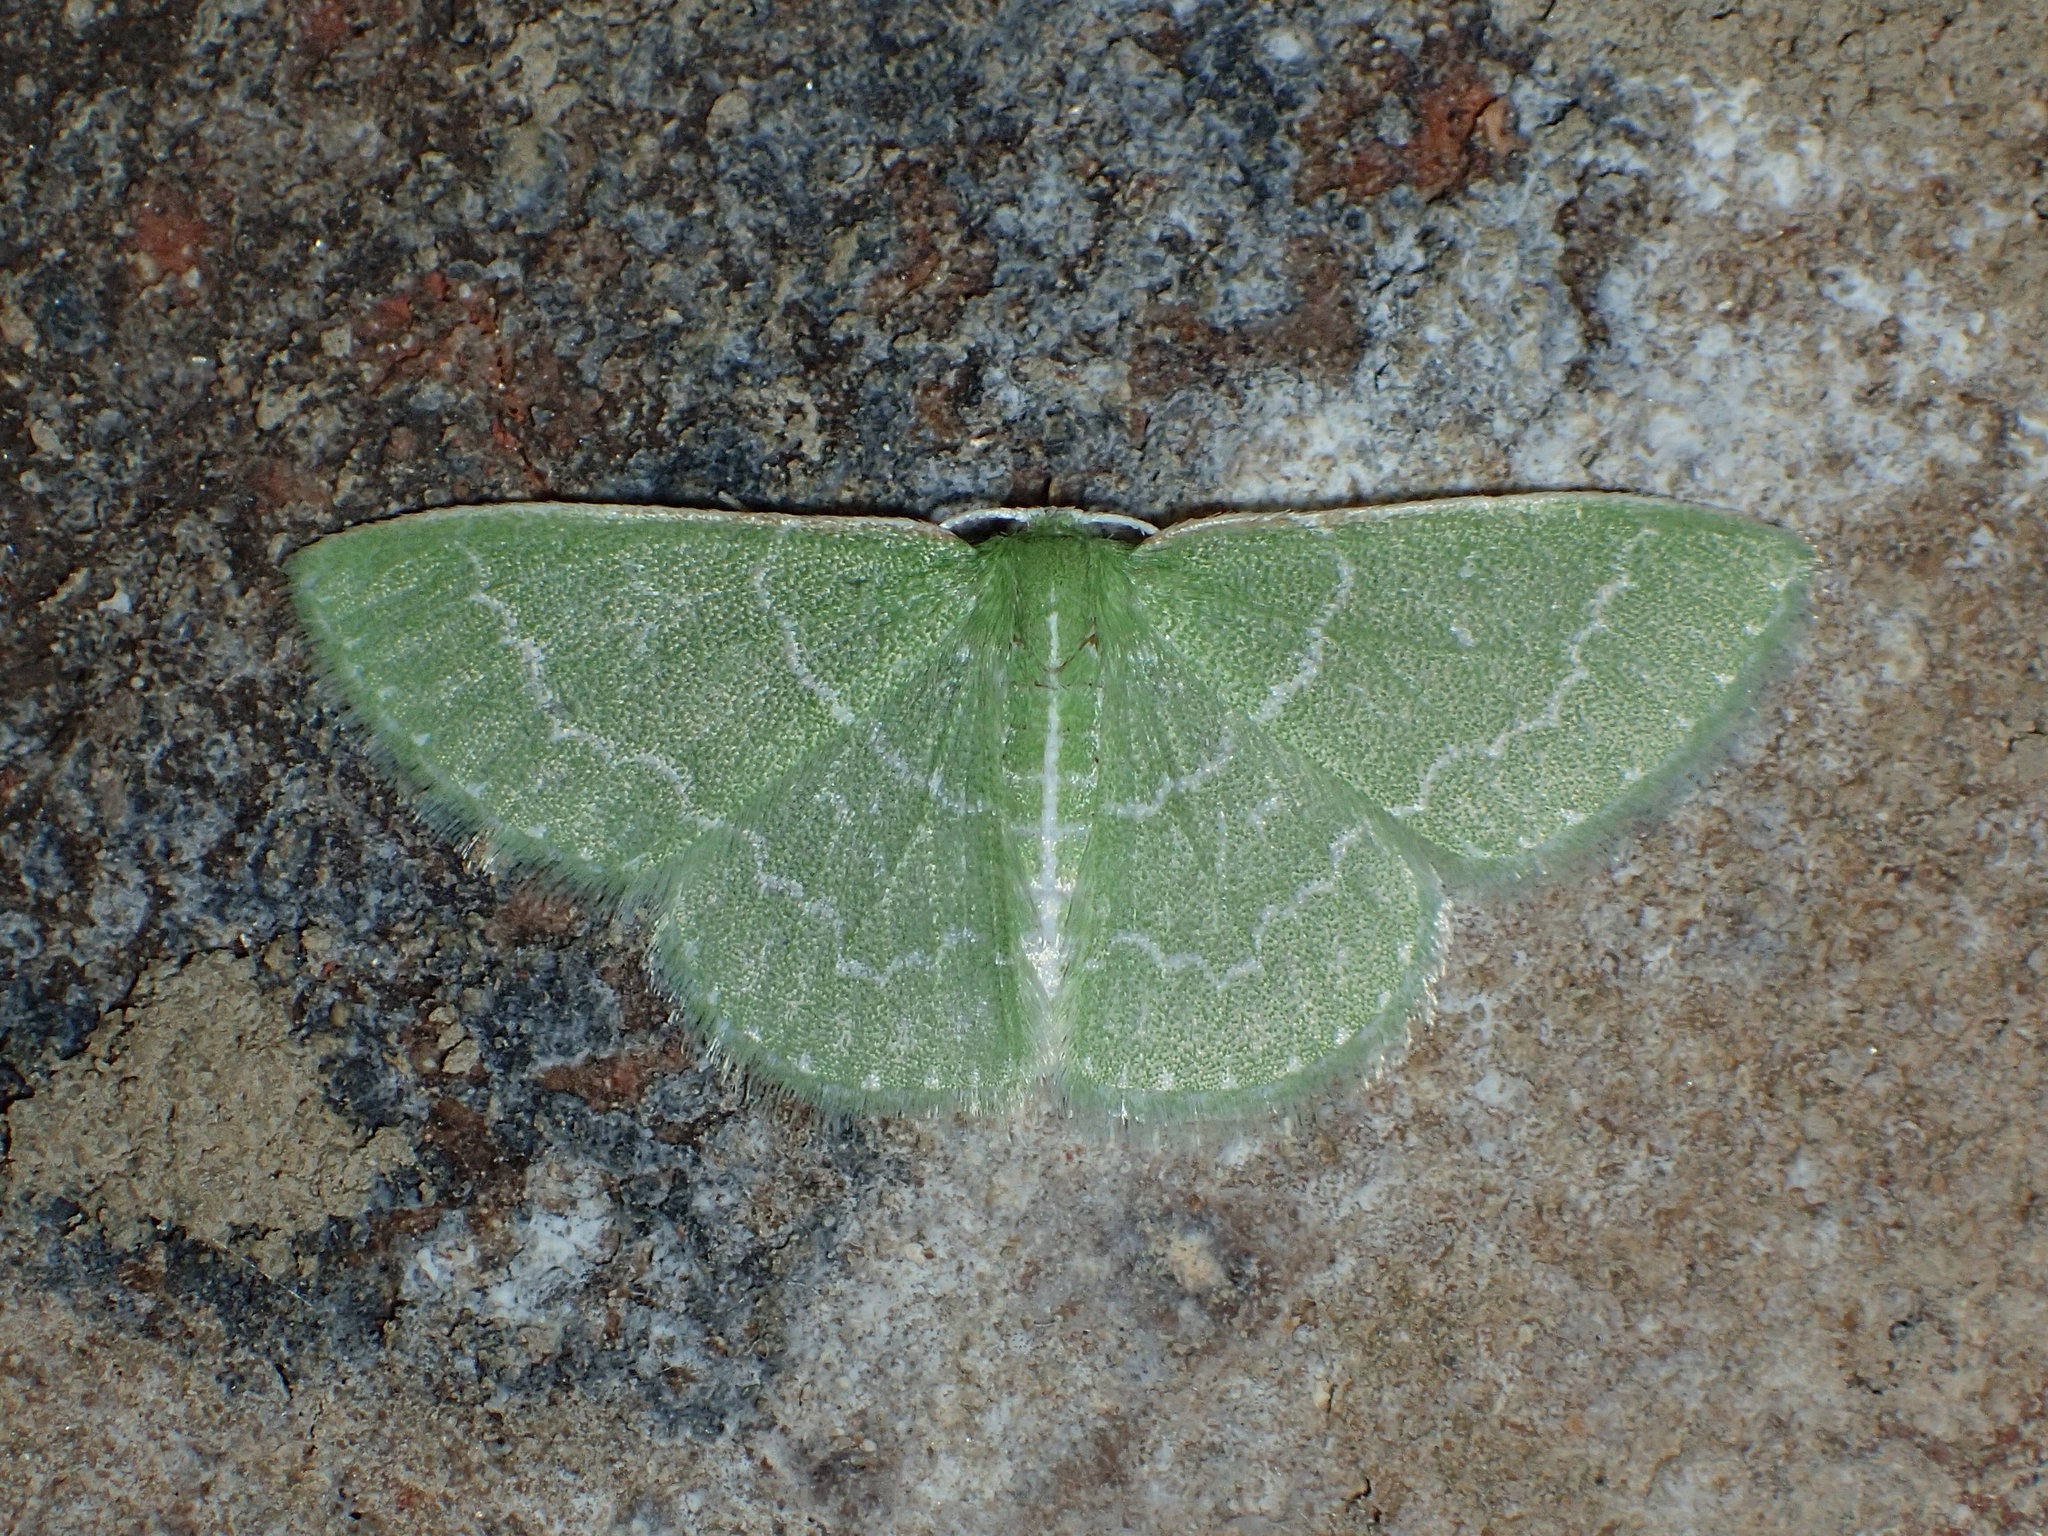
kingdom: Animalia
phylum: Arthropoda
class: Insecta
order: Lepidoptera
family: Geometridae
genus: Synchlora
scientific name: Synchlora aerata
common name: Wavy-lined emerald
